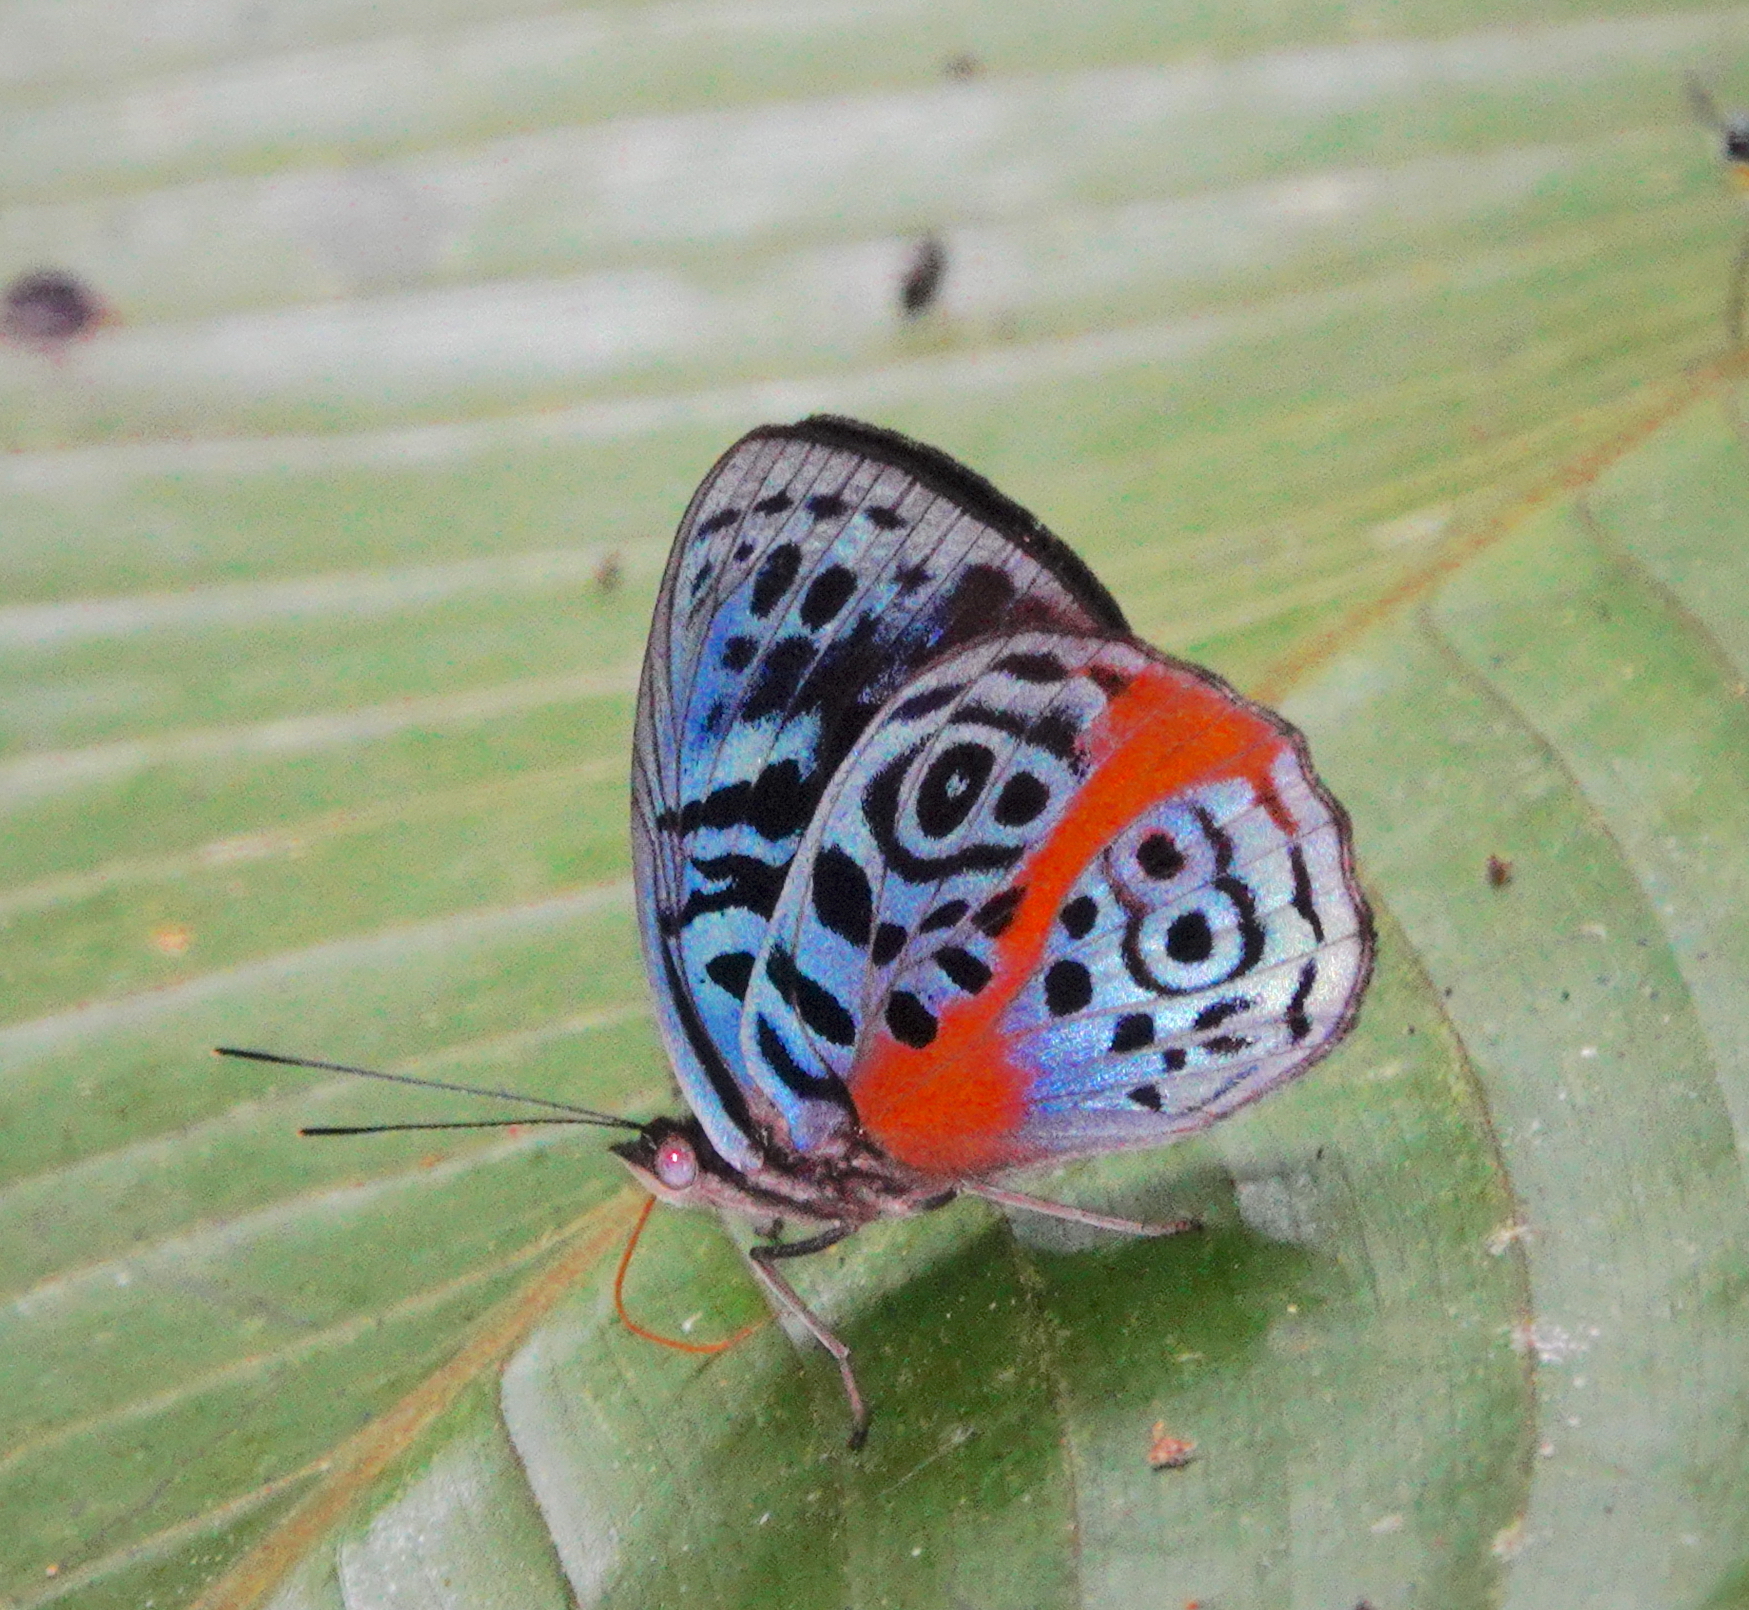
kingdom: Animalia
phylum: Arthropoda
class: Insecta
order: Lepidoptera
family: Nymphalidae
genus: Eunica
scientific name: Eunica sophonisba
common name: Glorious purplewing
